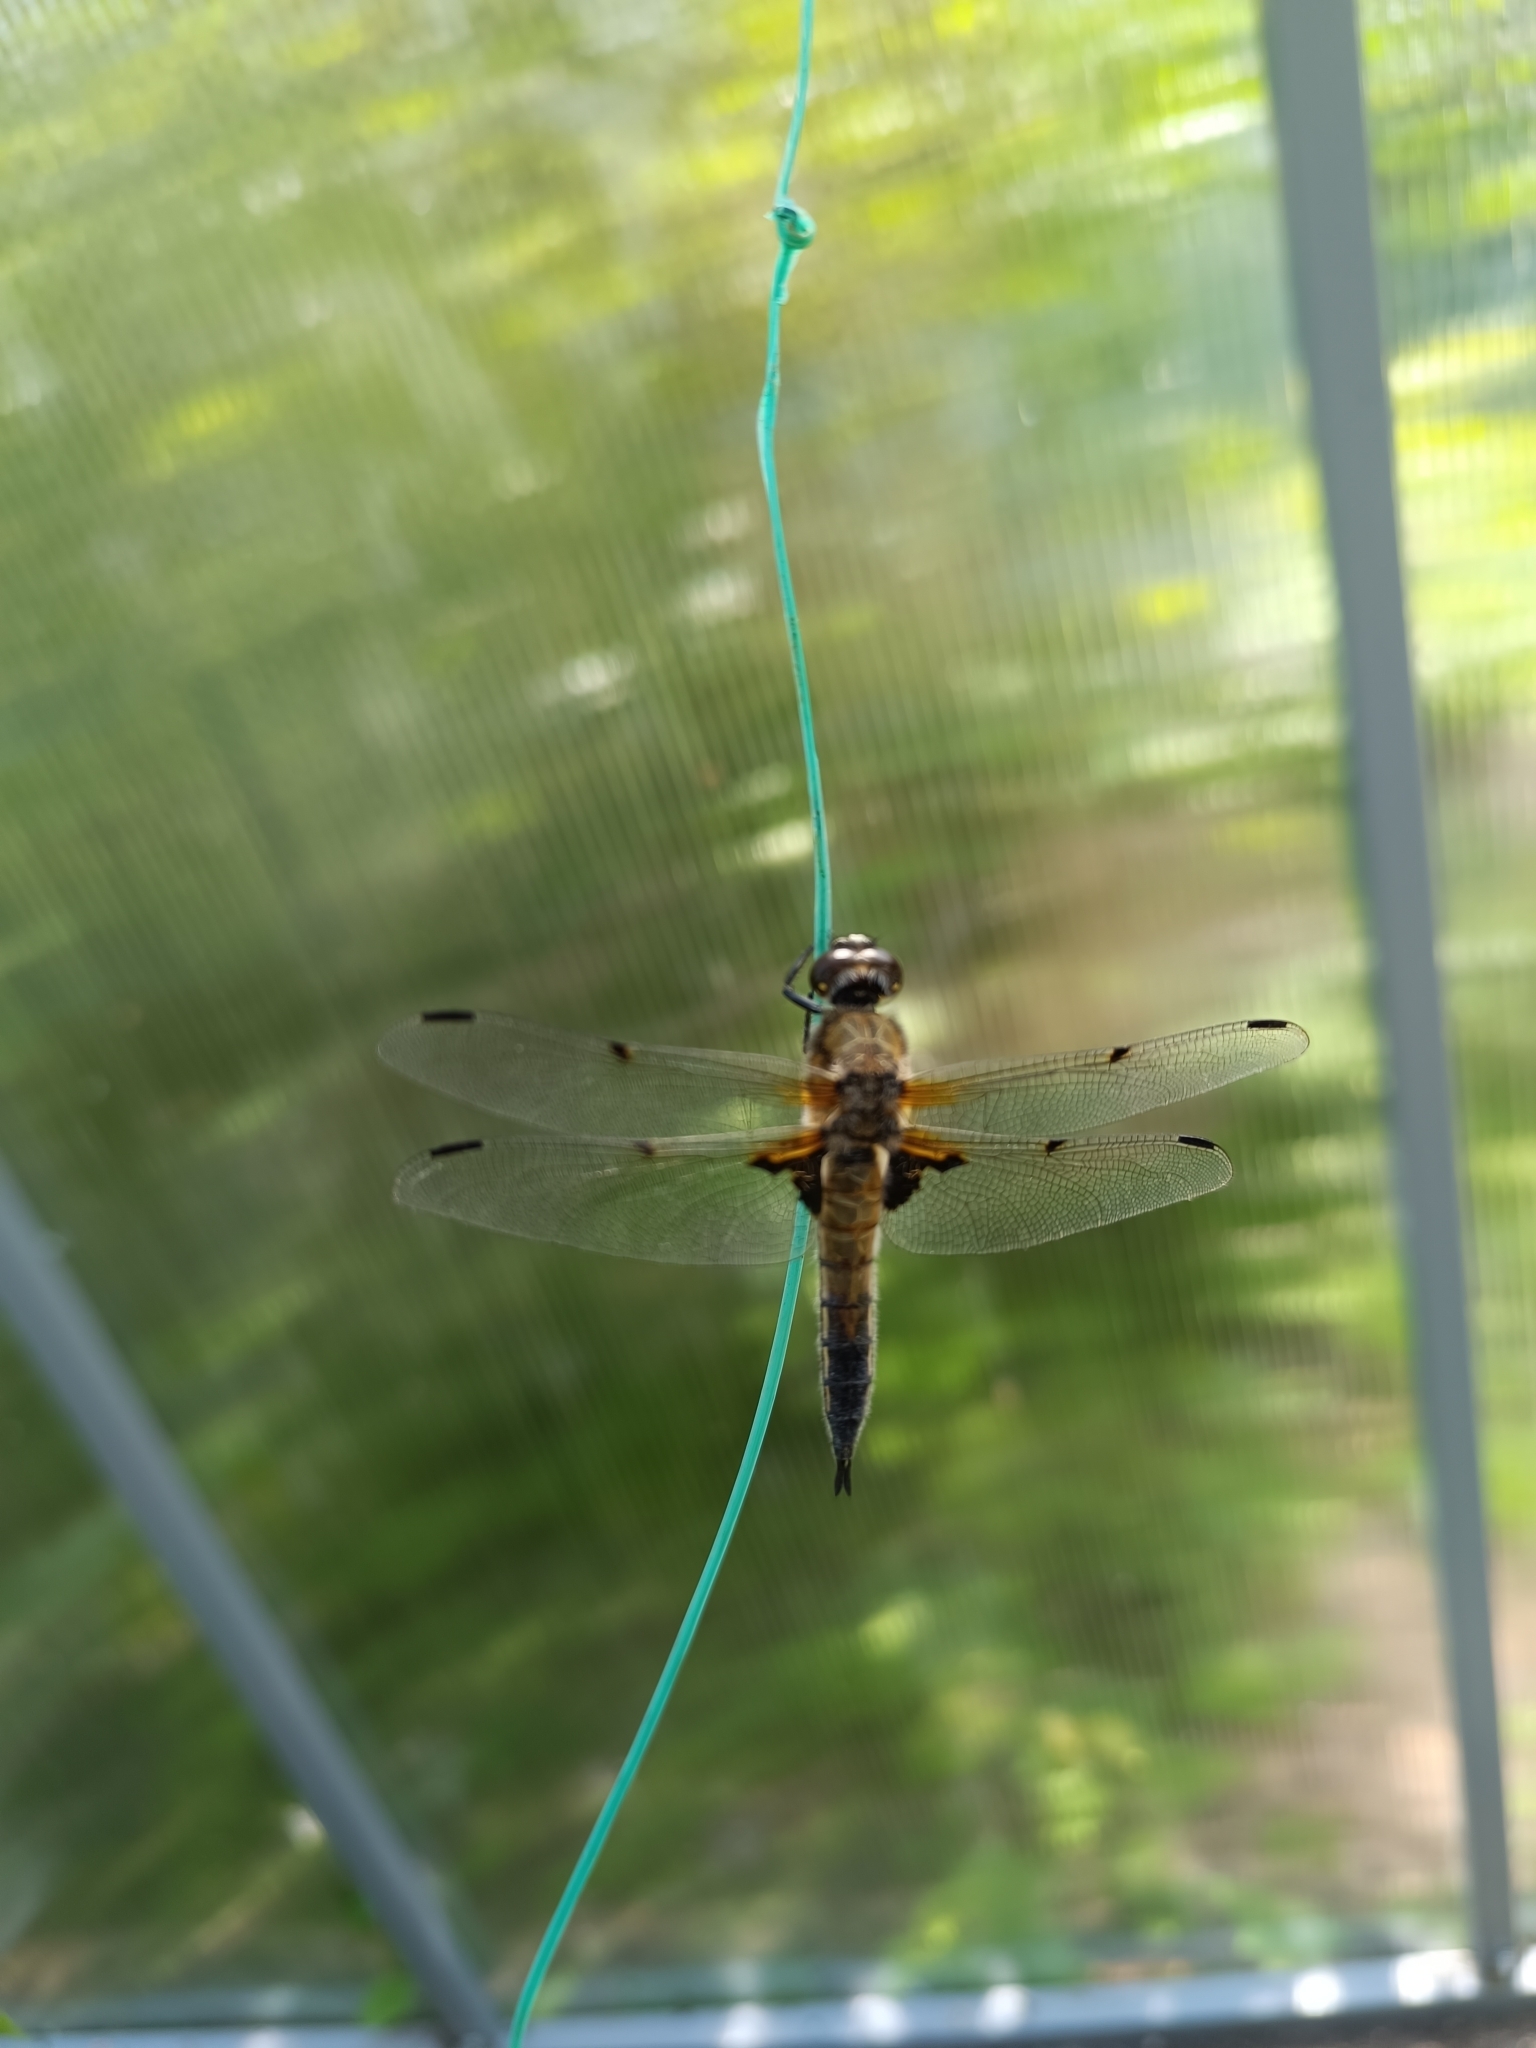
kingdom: Animalia
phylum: Arthropoda
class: Insecta
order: Odonata
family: Libellulidae
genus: Libellula
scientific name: Libellula quadrimaculata
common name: Four-spotted chaser
